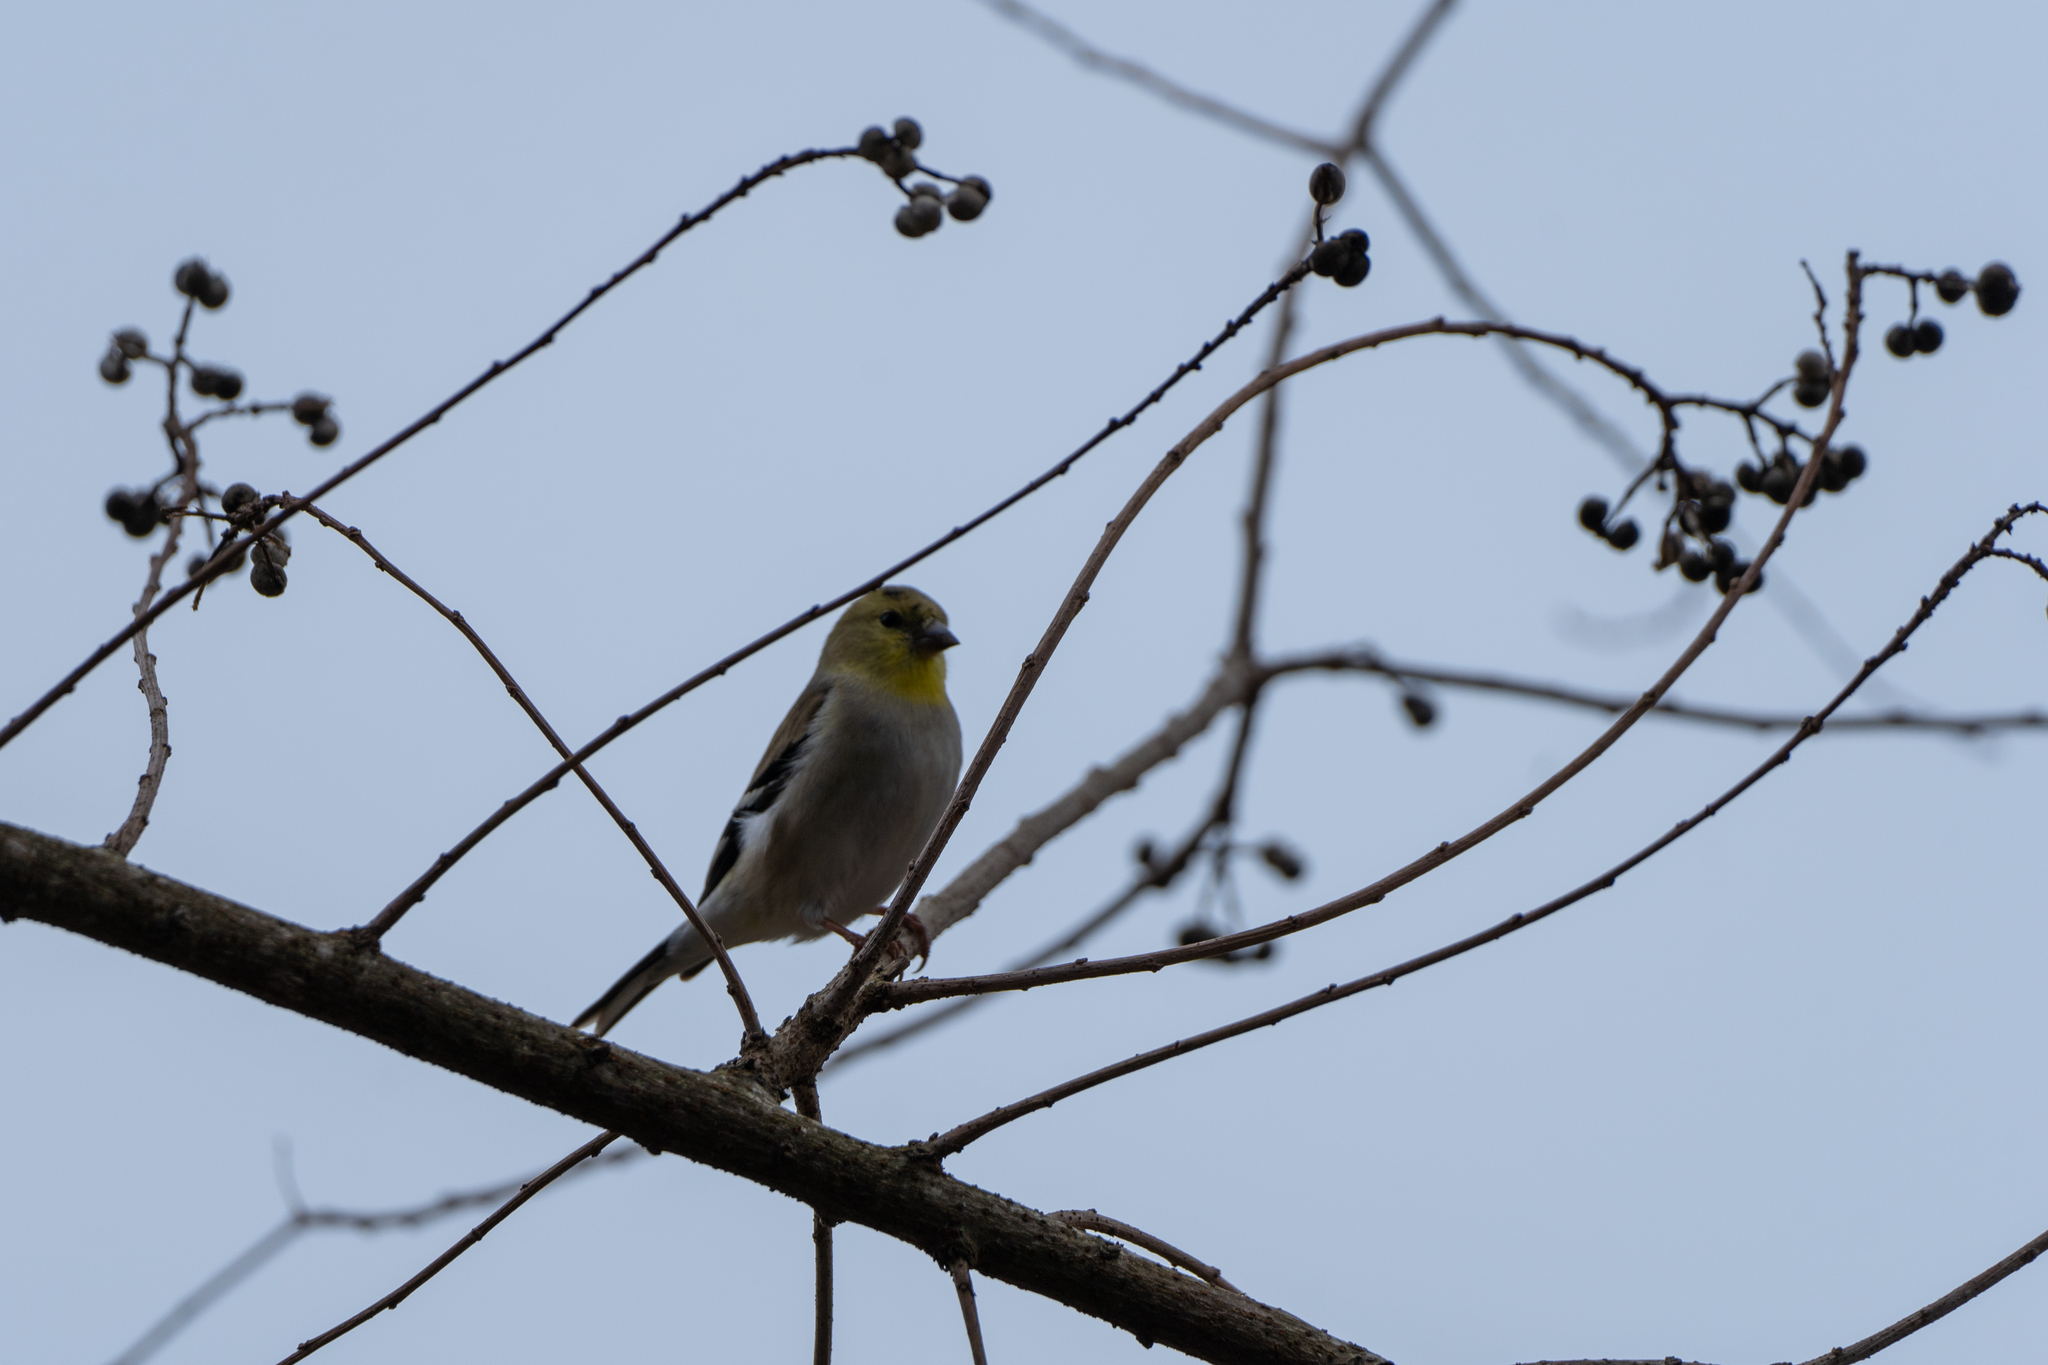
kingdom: Animalia
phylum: Chordata
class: Aves
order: Passeriformes
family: Fringillidae
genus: Spinus
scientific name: Spinus tristis
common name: American goldfinch
